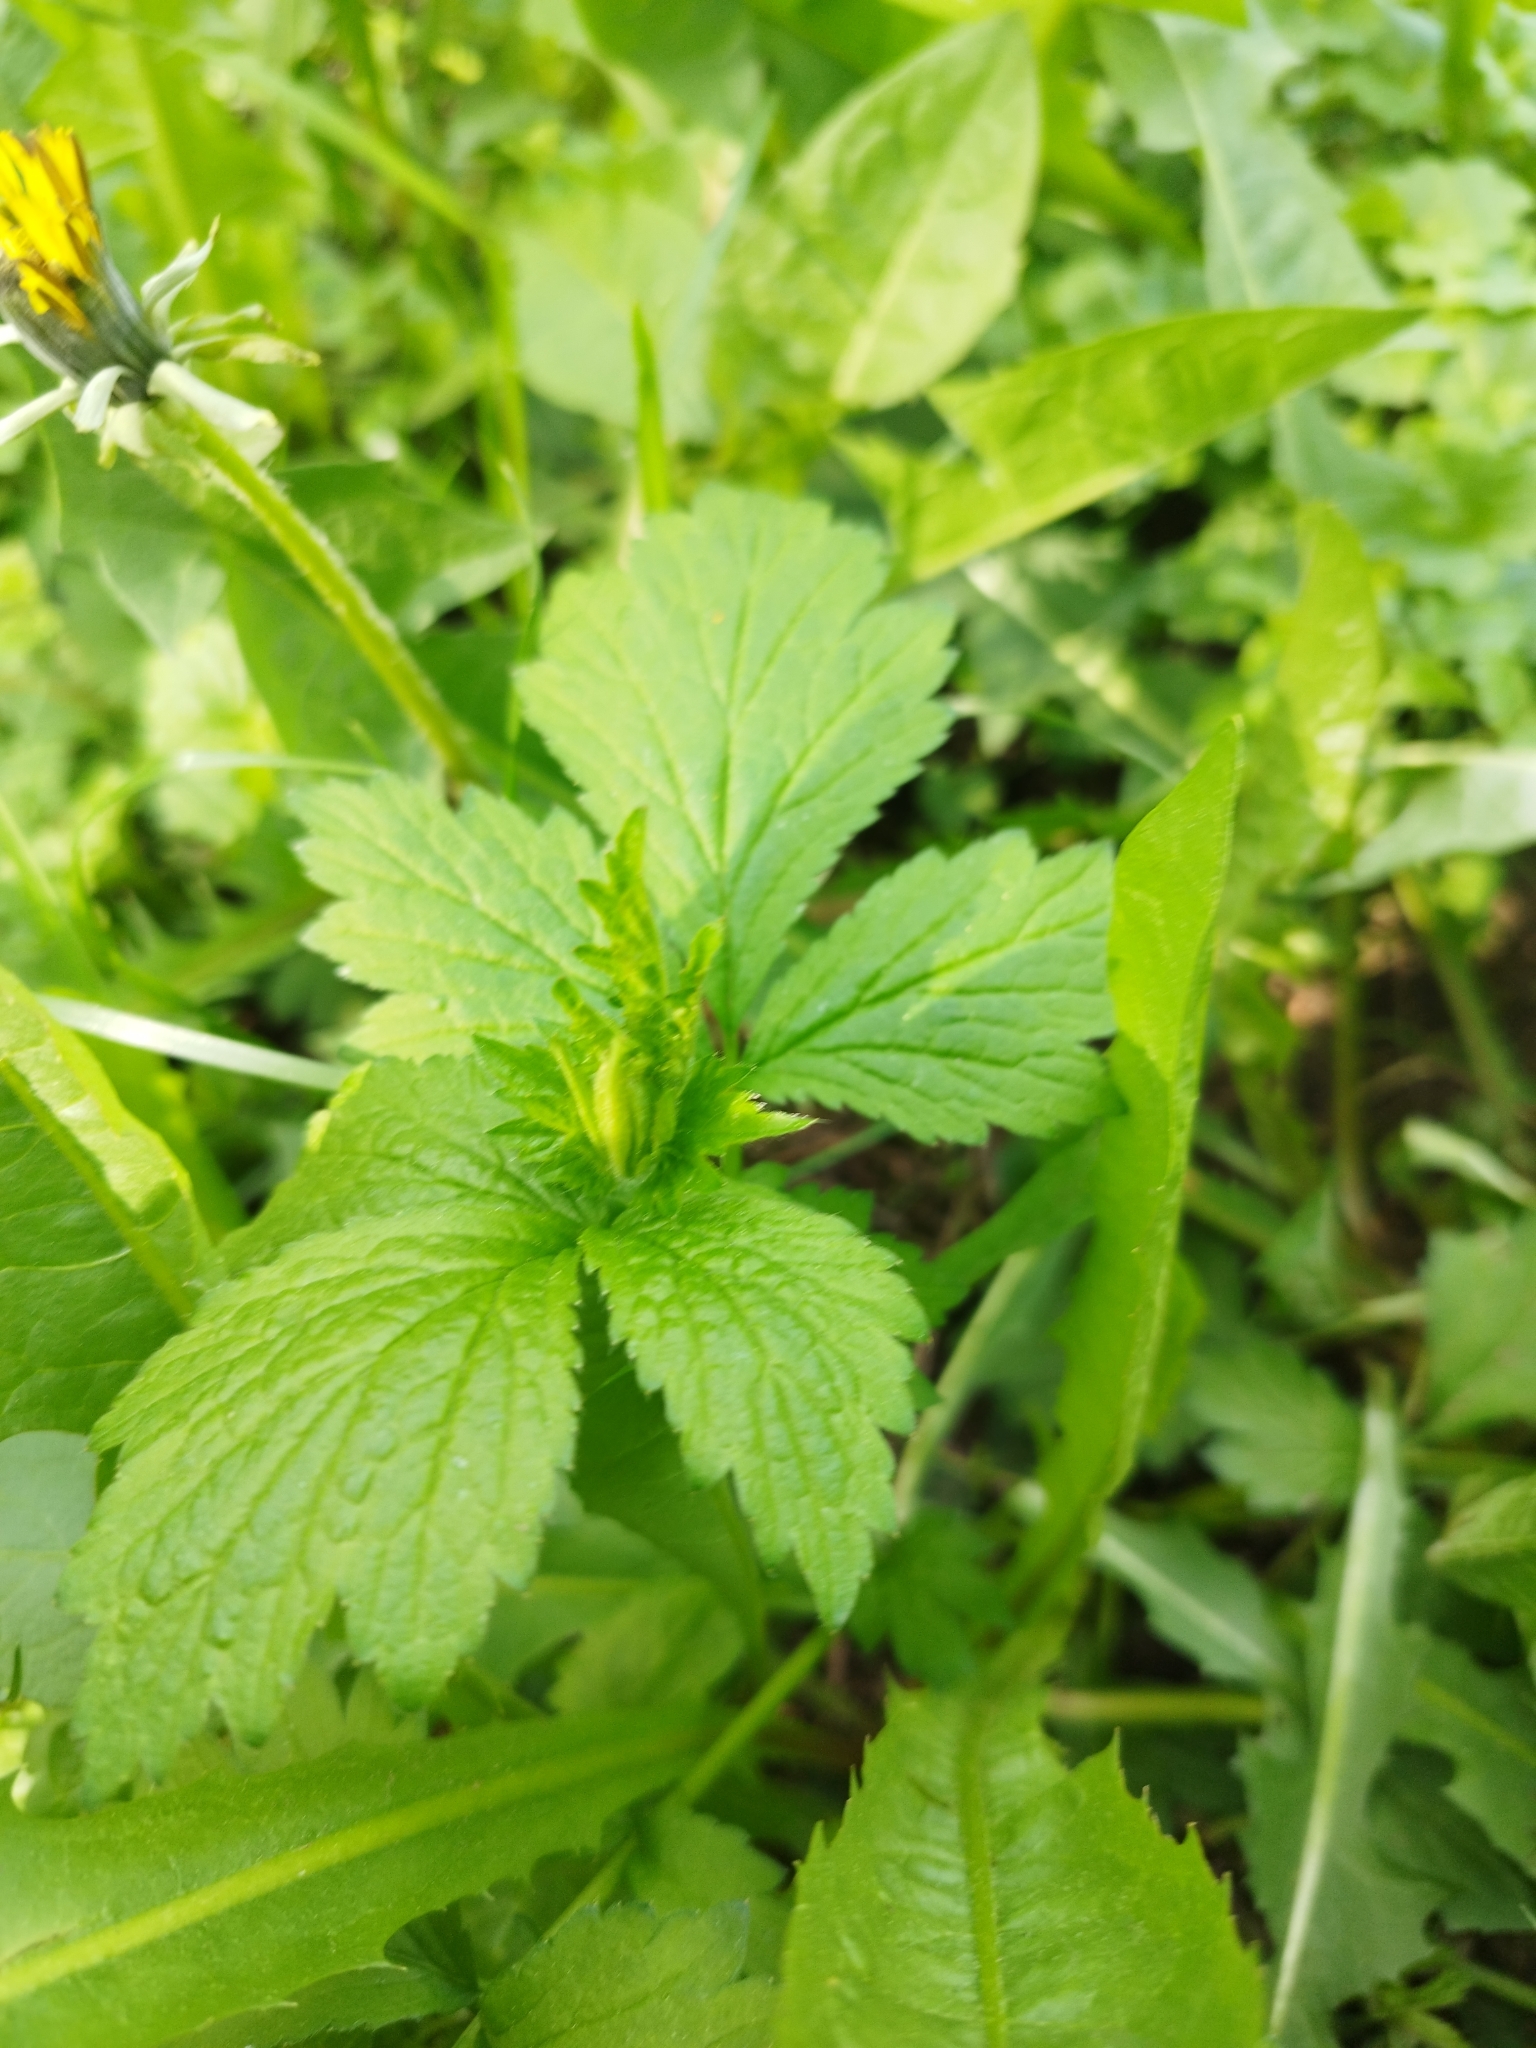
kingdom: Plantae
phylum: Tracheophyta
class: Magnoliopsida
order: Rosales
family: Rosaceae
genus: Geum
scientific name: Geum urbanum
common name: Wood avens
